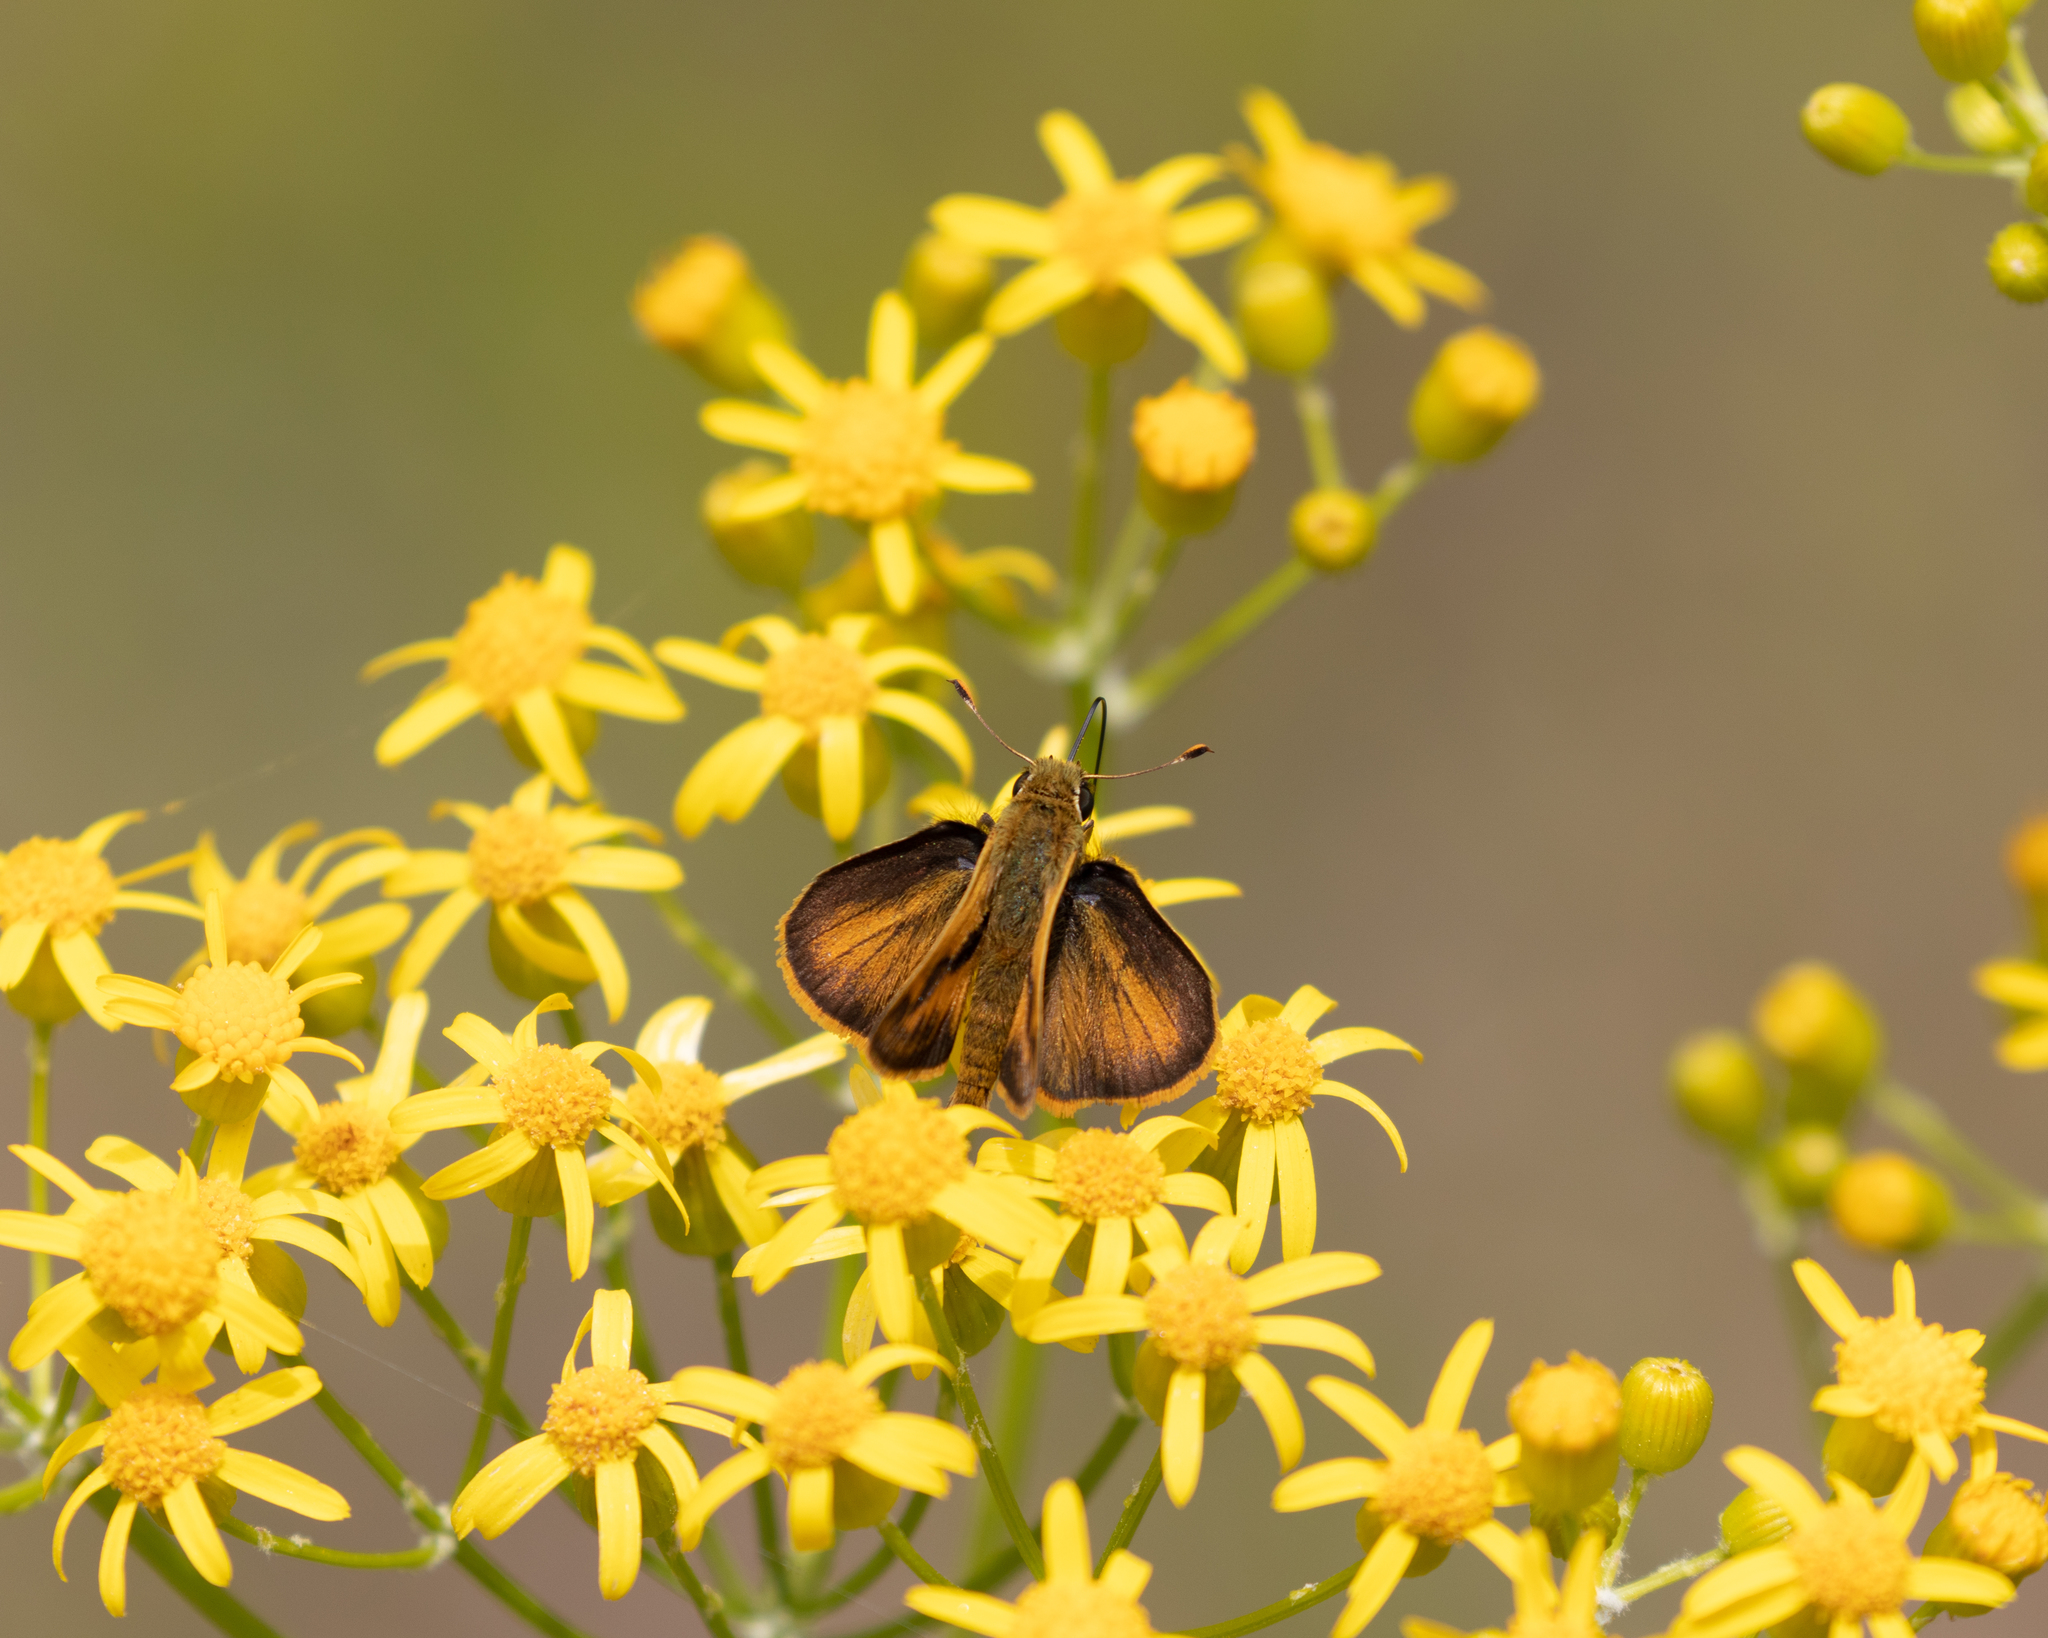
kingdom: Animalia
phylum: Arthropoda
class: Insecta
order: Lepidoptera
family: Hesperiidae
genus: Polites
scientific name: Polites vibex
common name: Whirlabout
